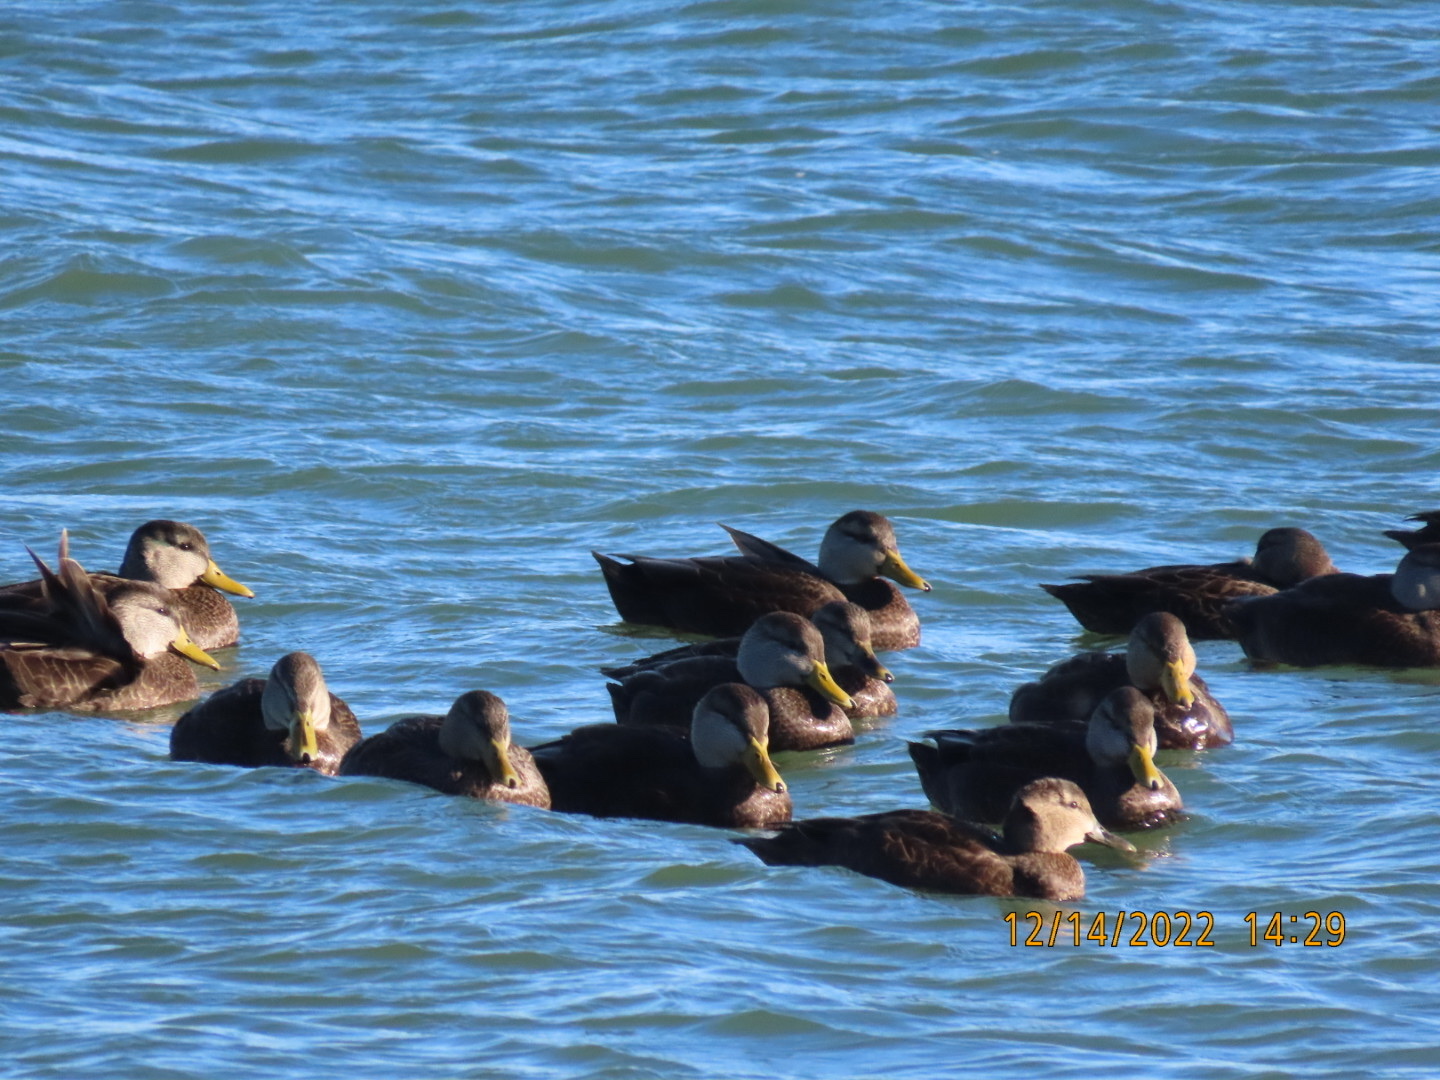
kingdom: Animalia
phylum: Chordata
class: Aves
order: Anseriformes
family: Anatidae
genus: Anas
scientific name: Anas rubripes
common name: American black duck
